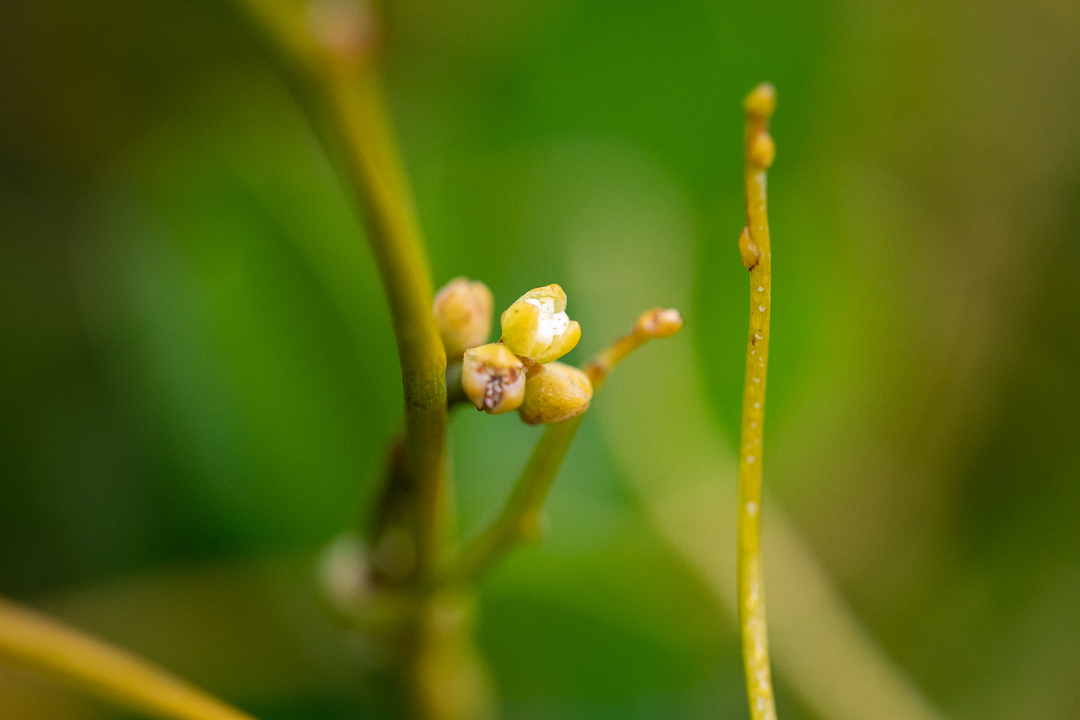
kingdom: Plantae
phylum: Tracheophyta
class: Magnoliopsida
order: Laurales
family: Lauraceae
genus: Cassytha
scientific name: Cassytha ciliolata
